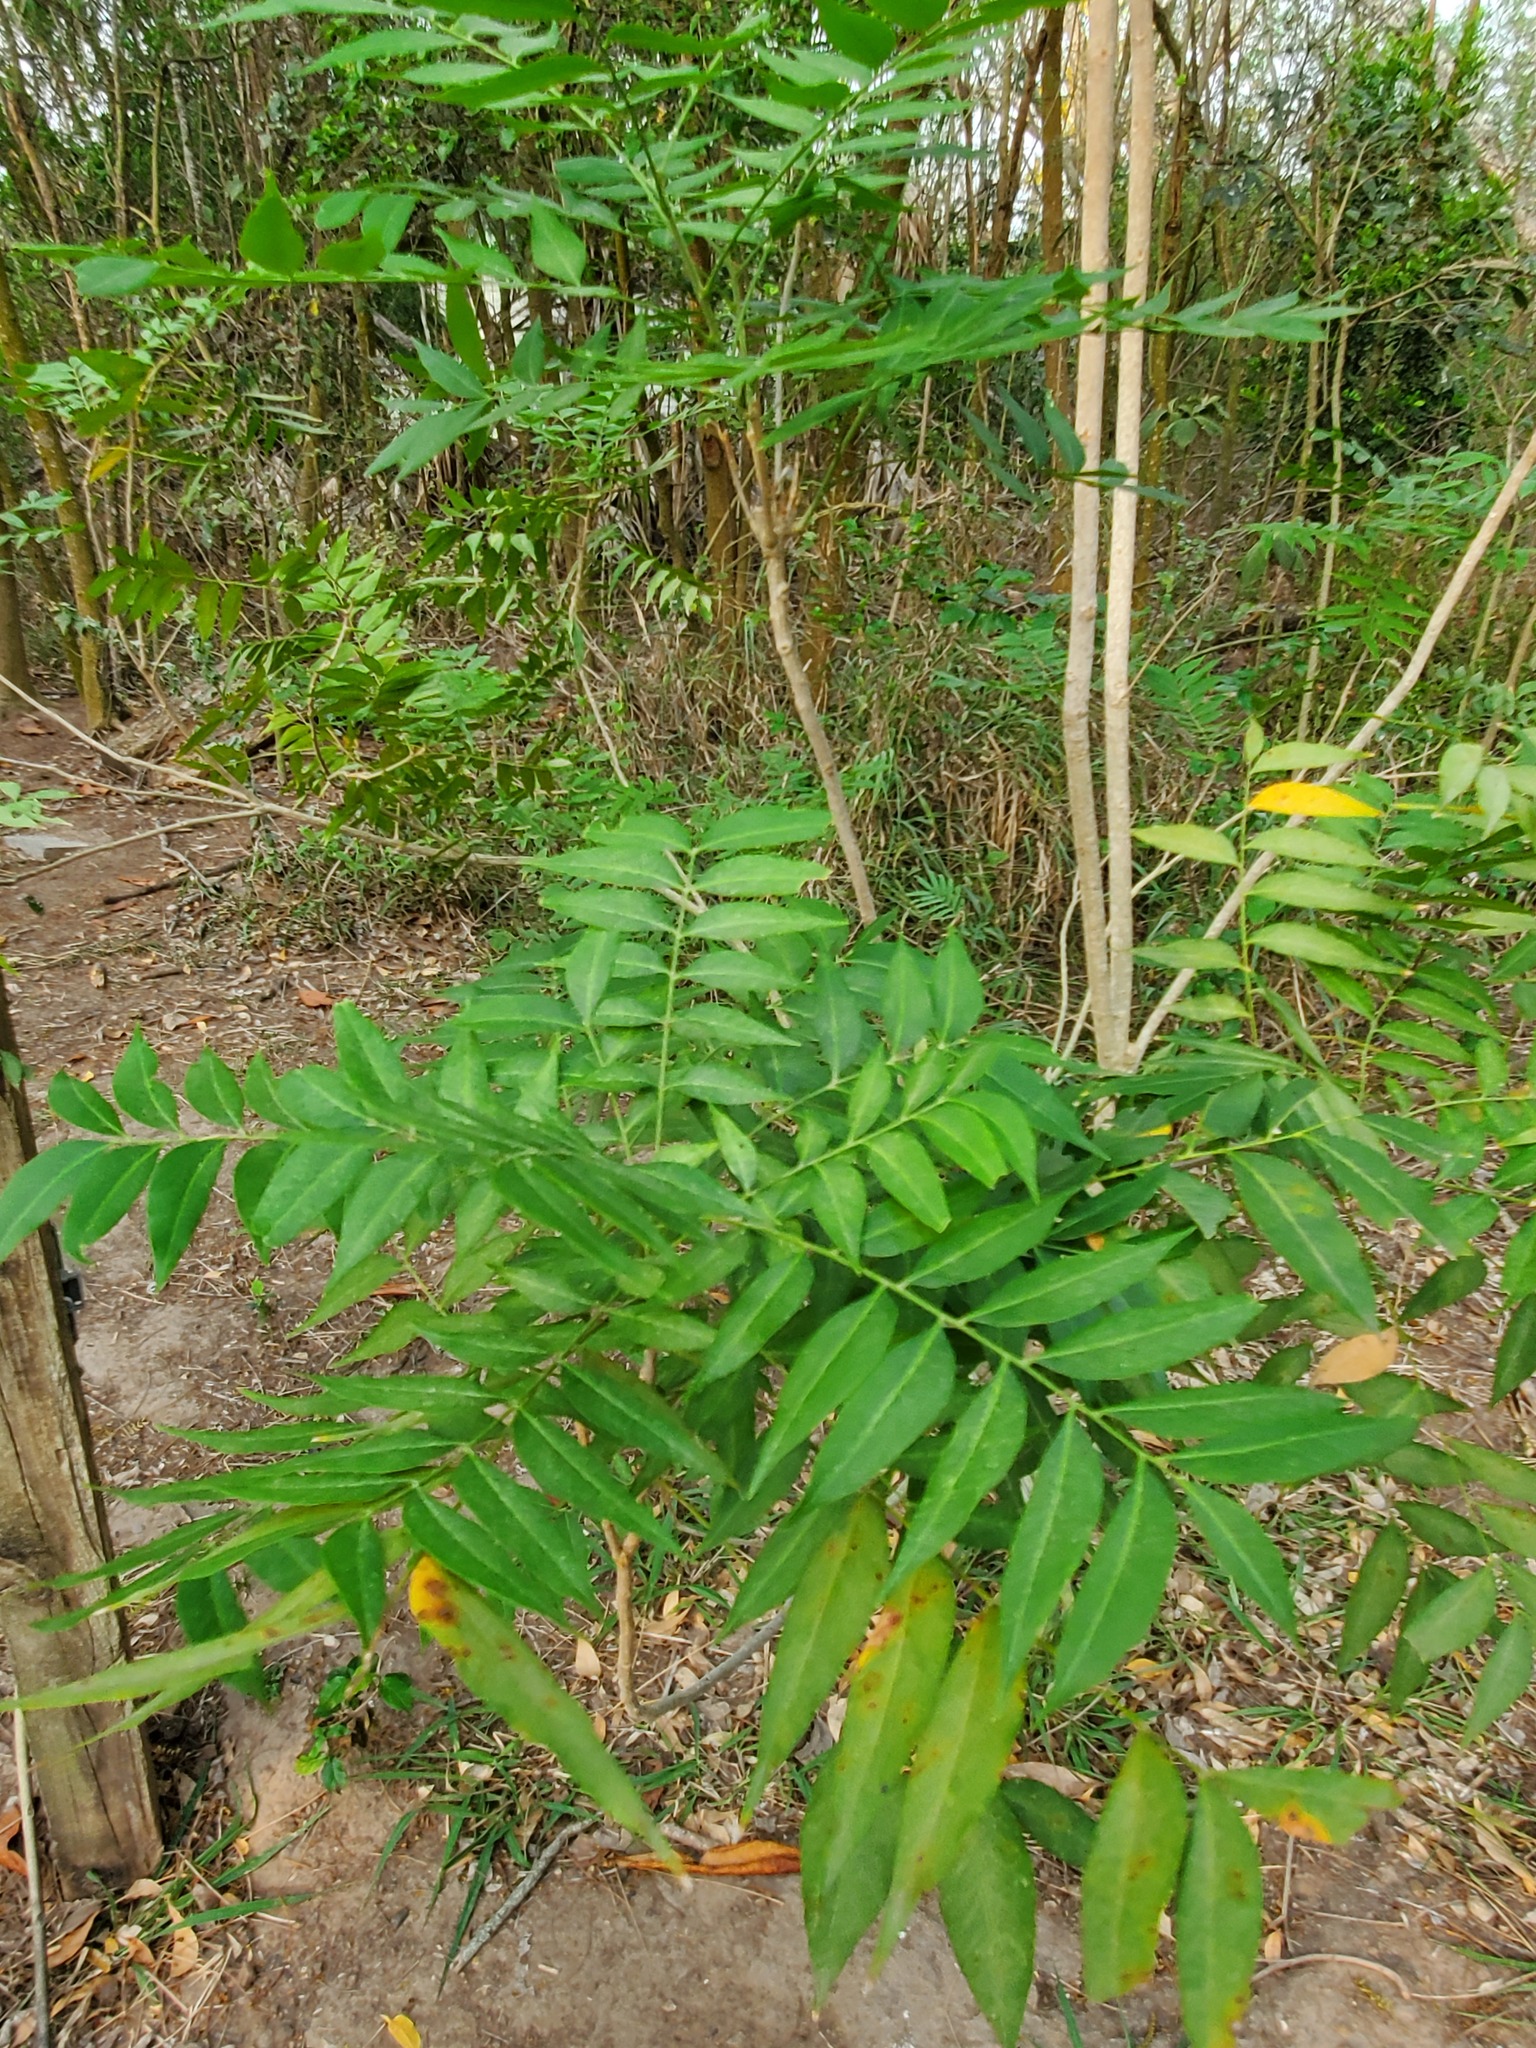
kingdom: Plantae
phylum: Tracheophyta
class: Magnoliopsida
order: Sapindales
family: Sapindaceae
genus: Sapindus
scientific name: Sapindus drummondii
